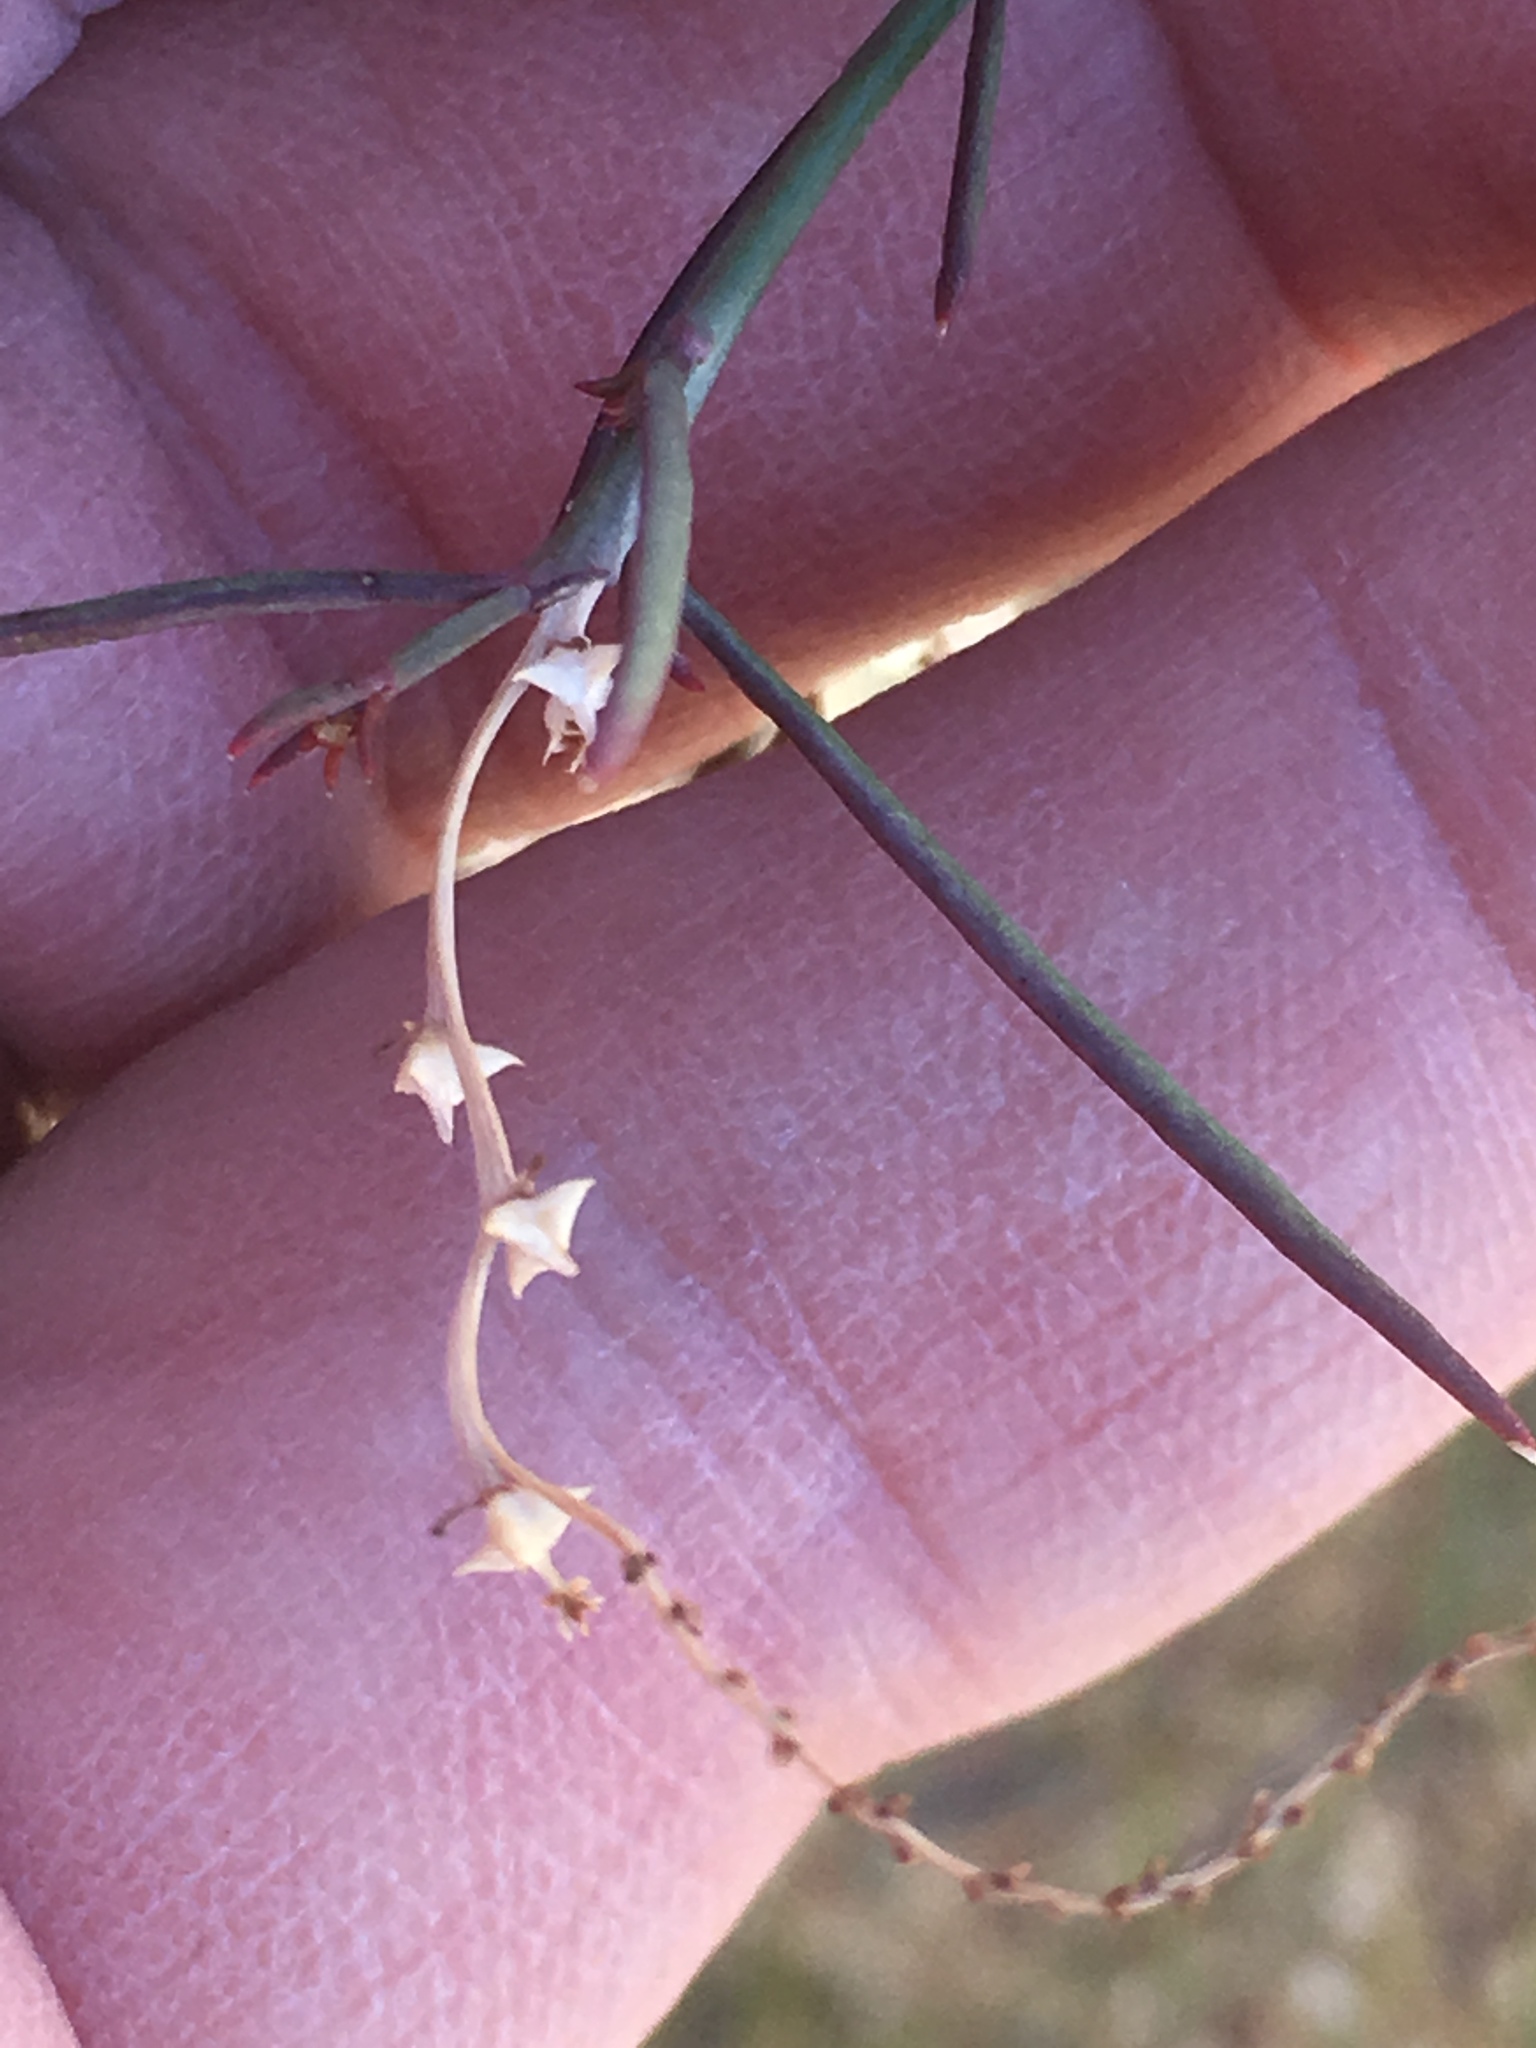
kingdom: Plantae
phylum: Tracheophyta
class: Magnoliopsida
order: Malpighiales
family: Euphorbiaceae
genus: Stillingia
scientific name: Stillingia linearifolia
